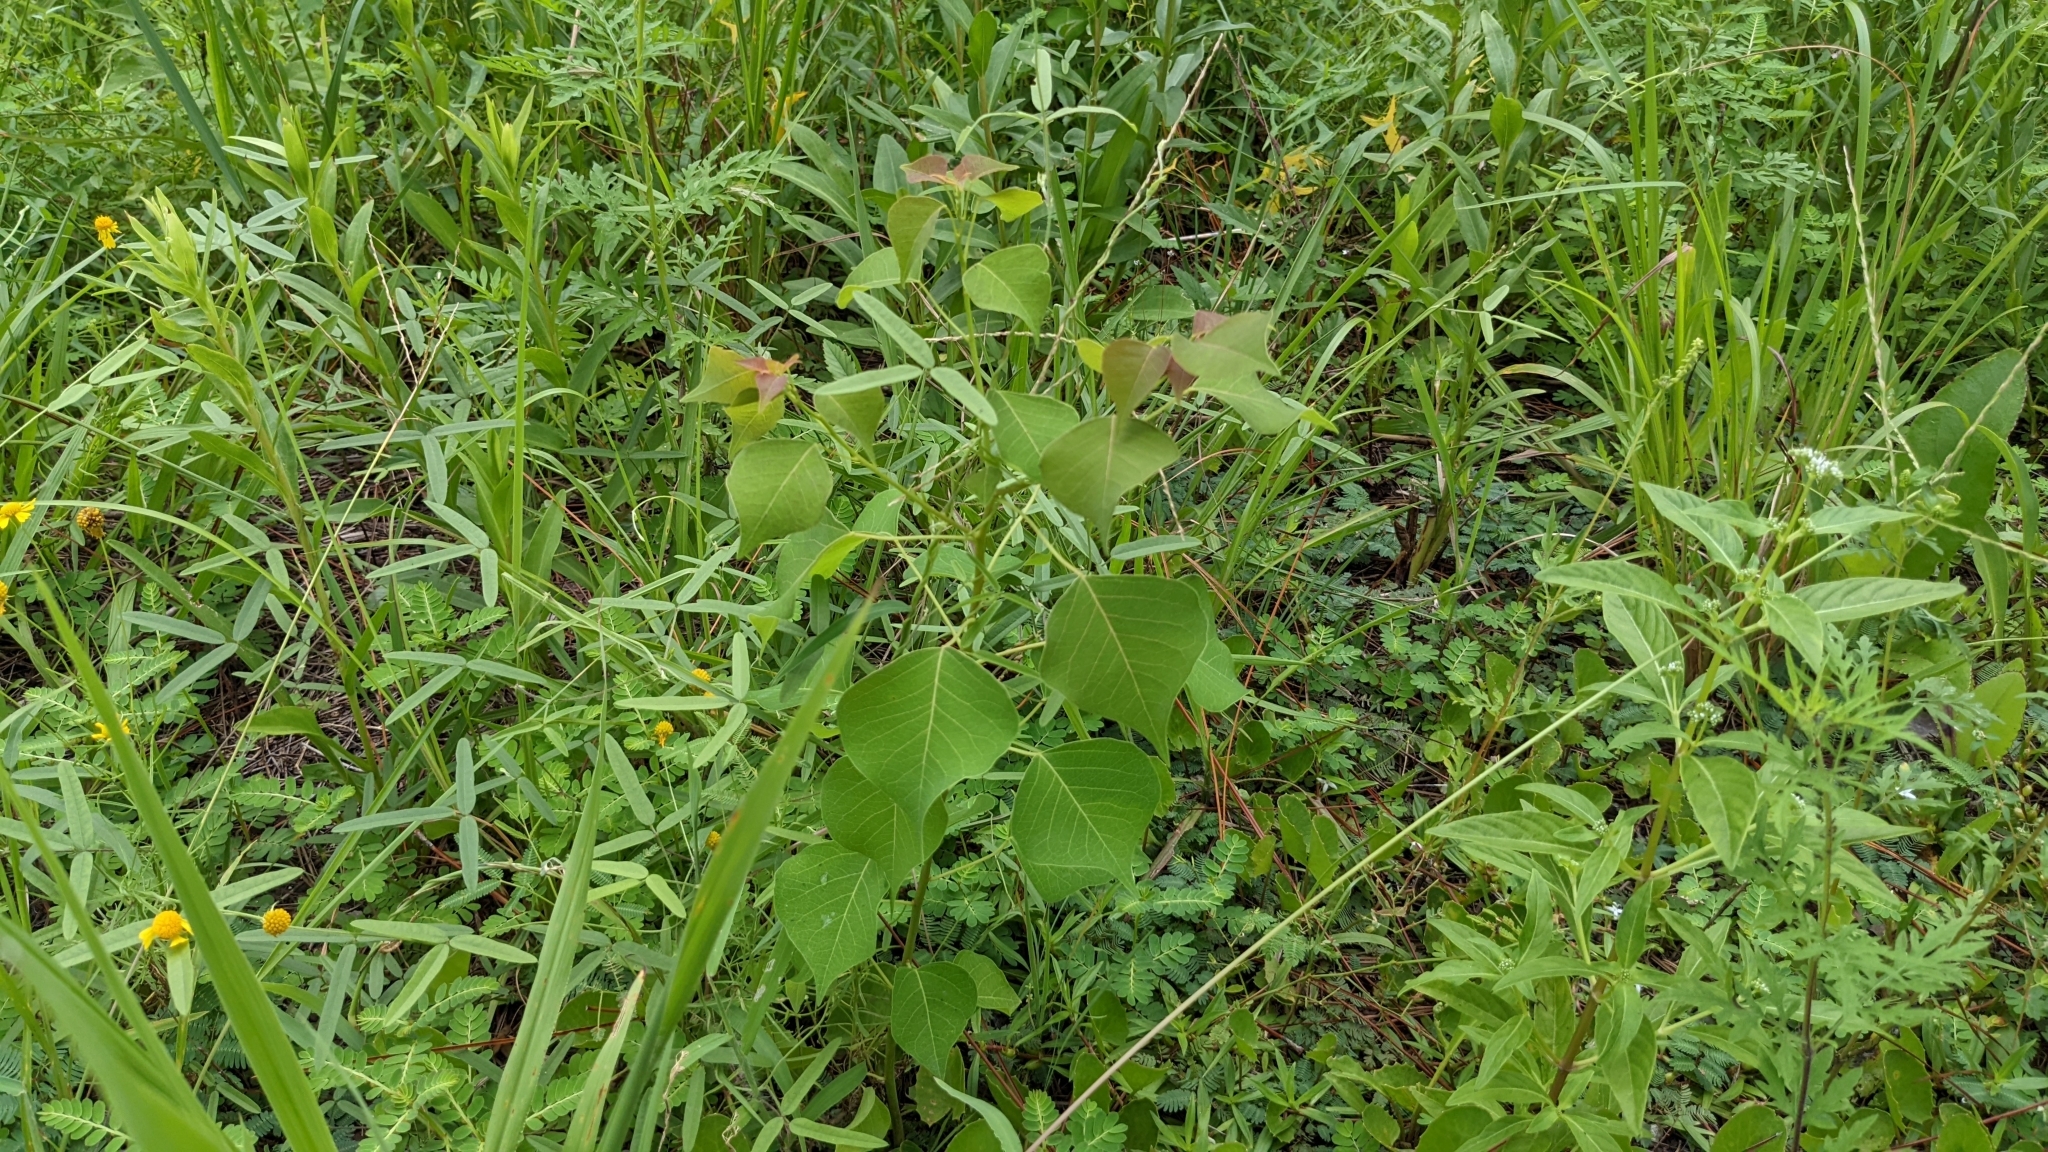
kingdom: Plantae
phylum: Tracheophyta
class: Magnoliopsida
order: Malpighiales
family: Euphorbiaceae
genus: Triadica
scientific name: Triadica sebifera
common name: Chinese tallow
